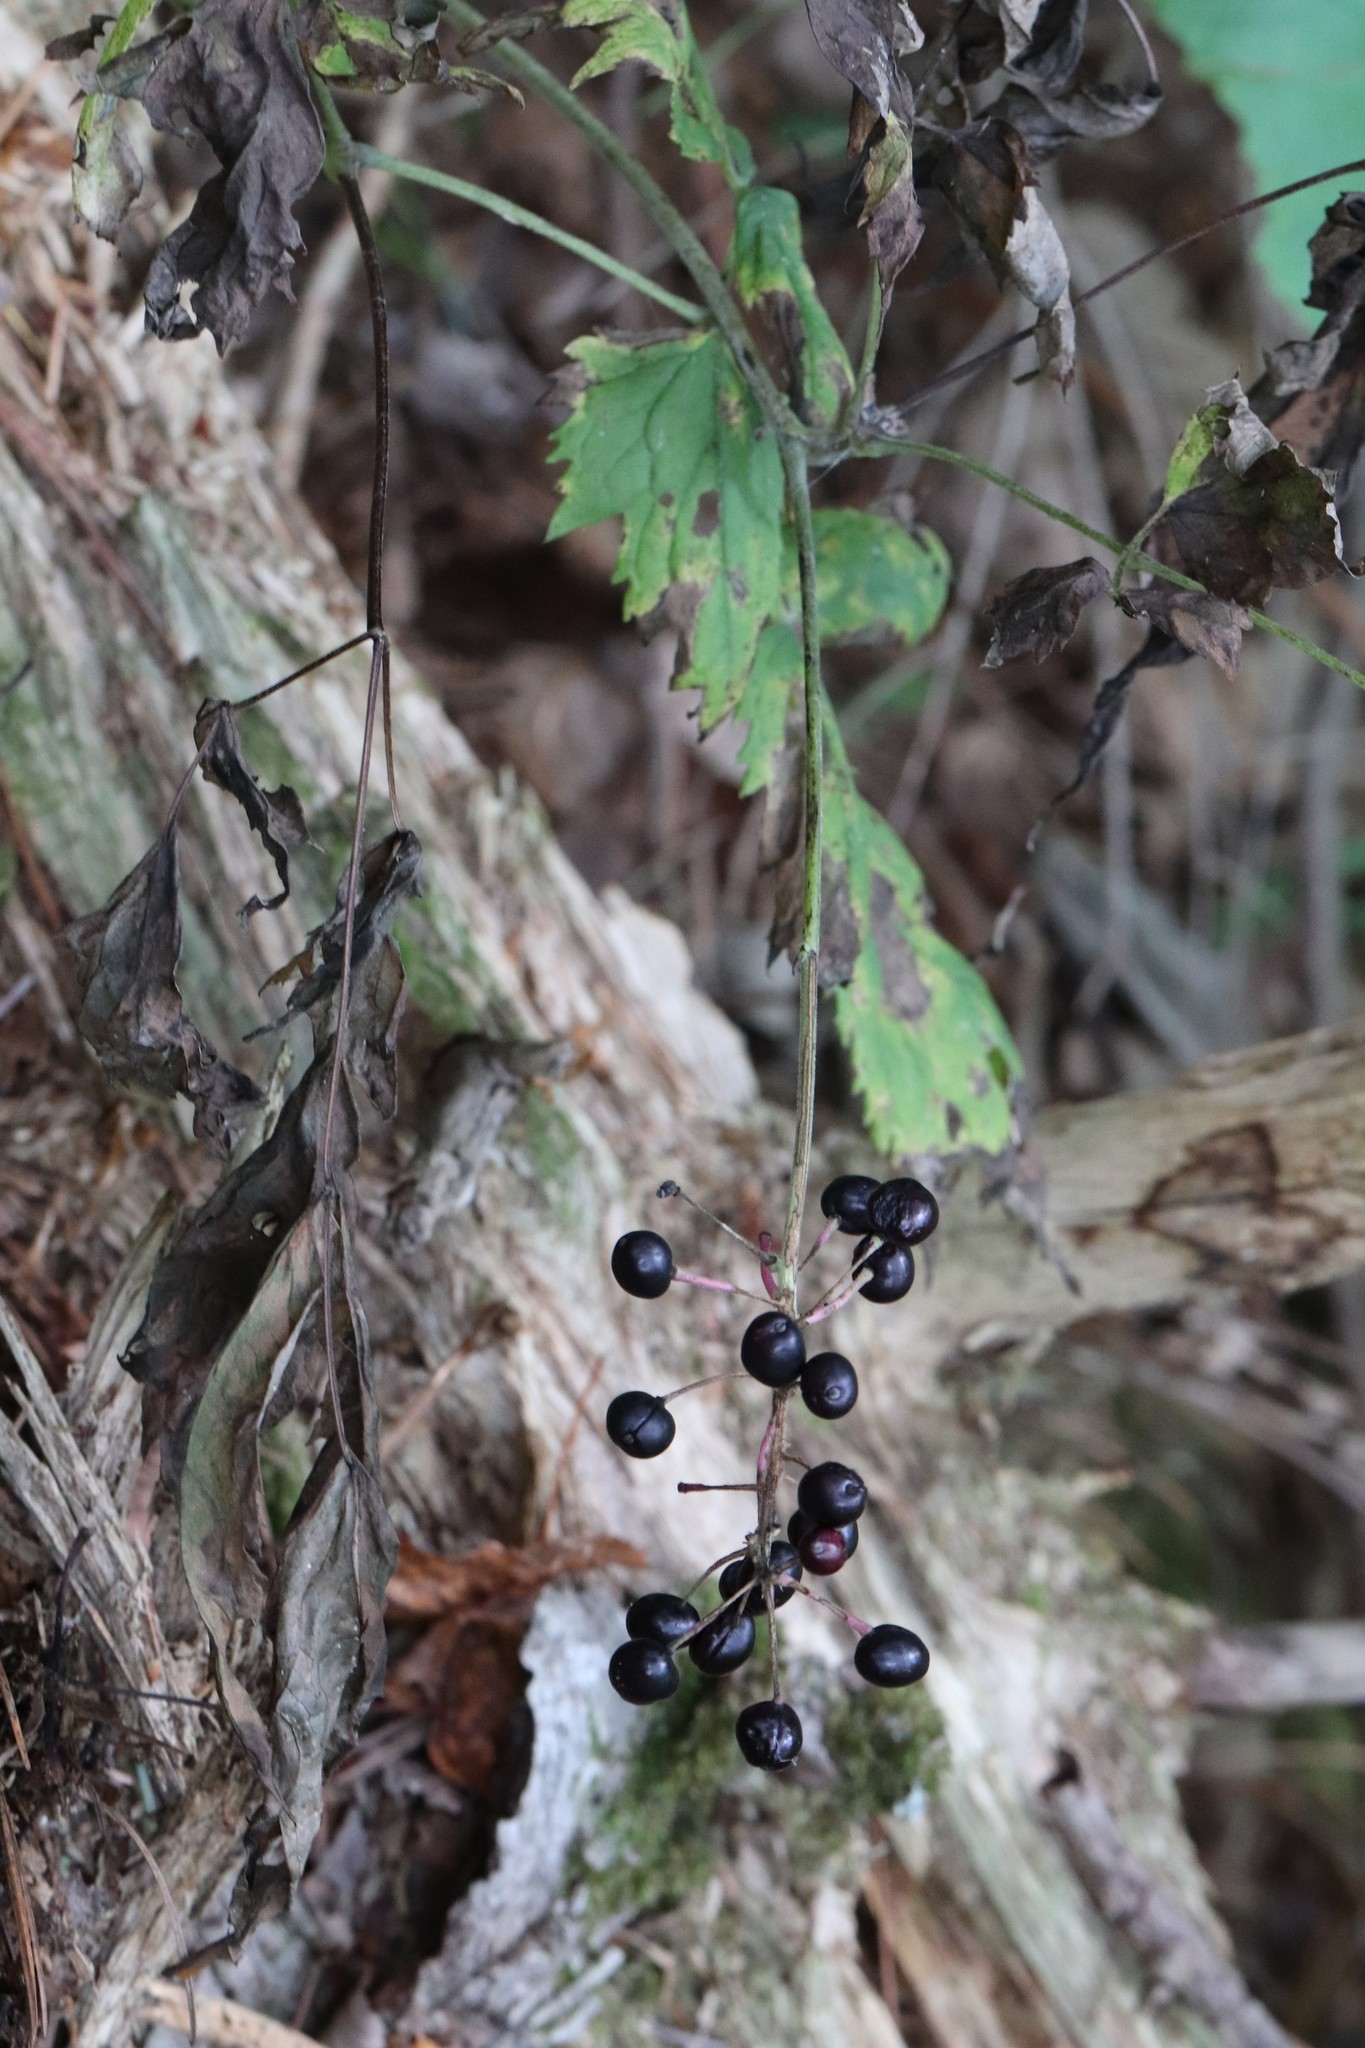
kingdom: Plantae
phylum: Tracheophyta
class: Magnoliopsida
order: Ranunculales
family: Ranunculaceae
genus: Actaea
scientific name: Actaea spicata
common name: Baneberry
